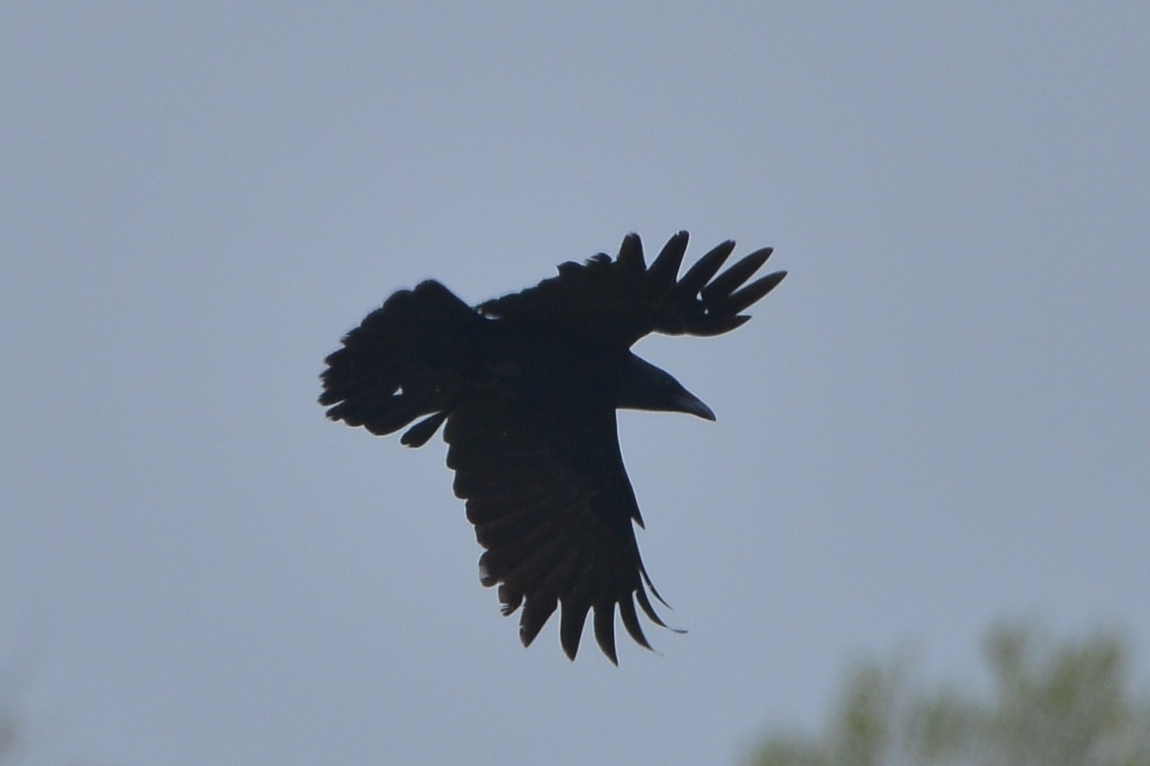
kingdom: Animalia
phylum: Chordata
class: Aves
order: Passeriformes
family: Corvidae
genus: Corvus
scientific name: Corvus corone
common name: Carrion crow
